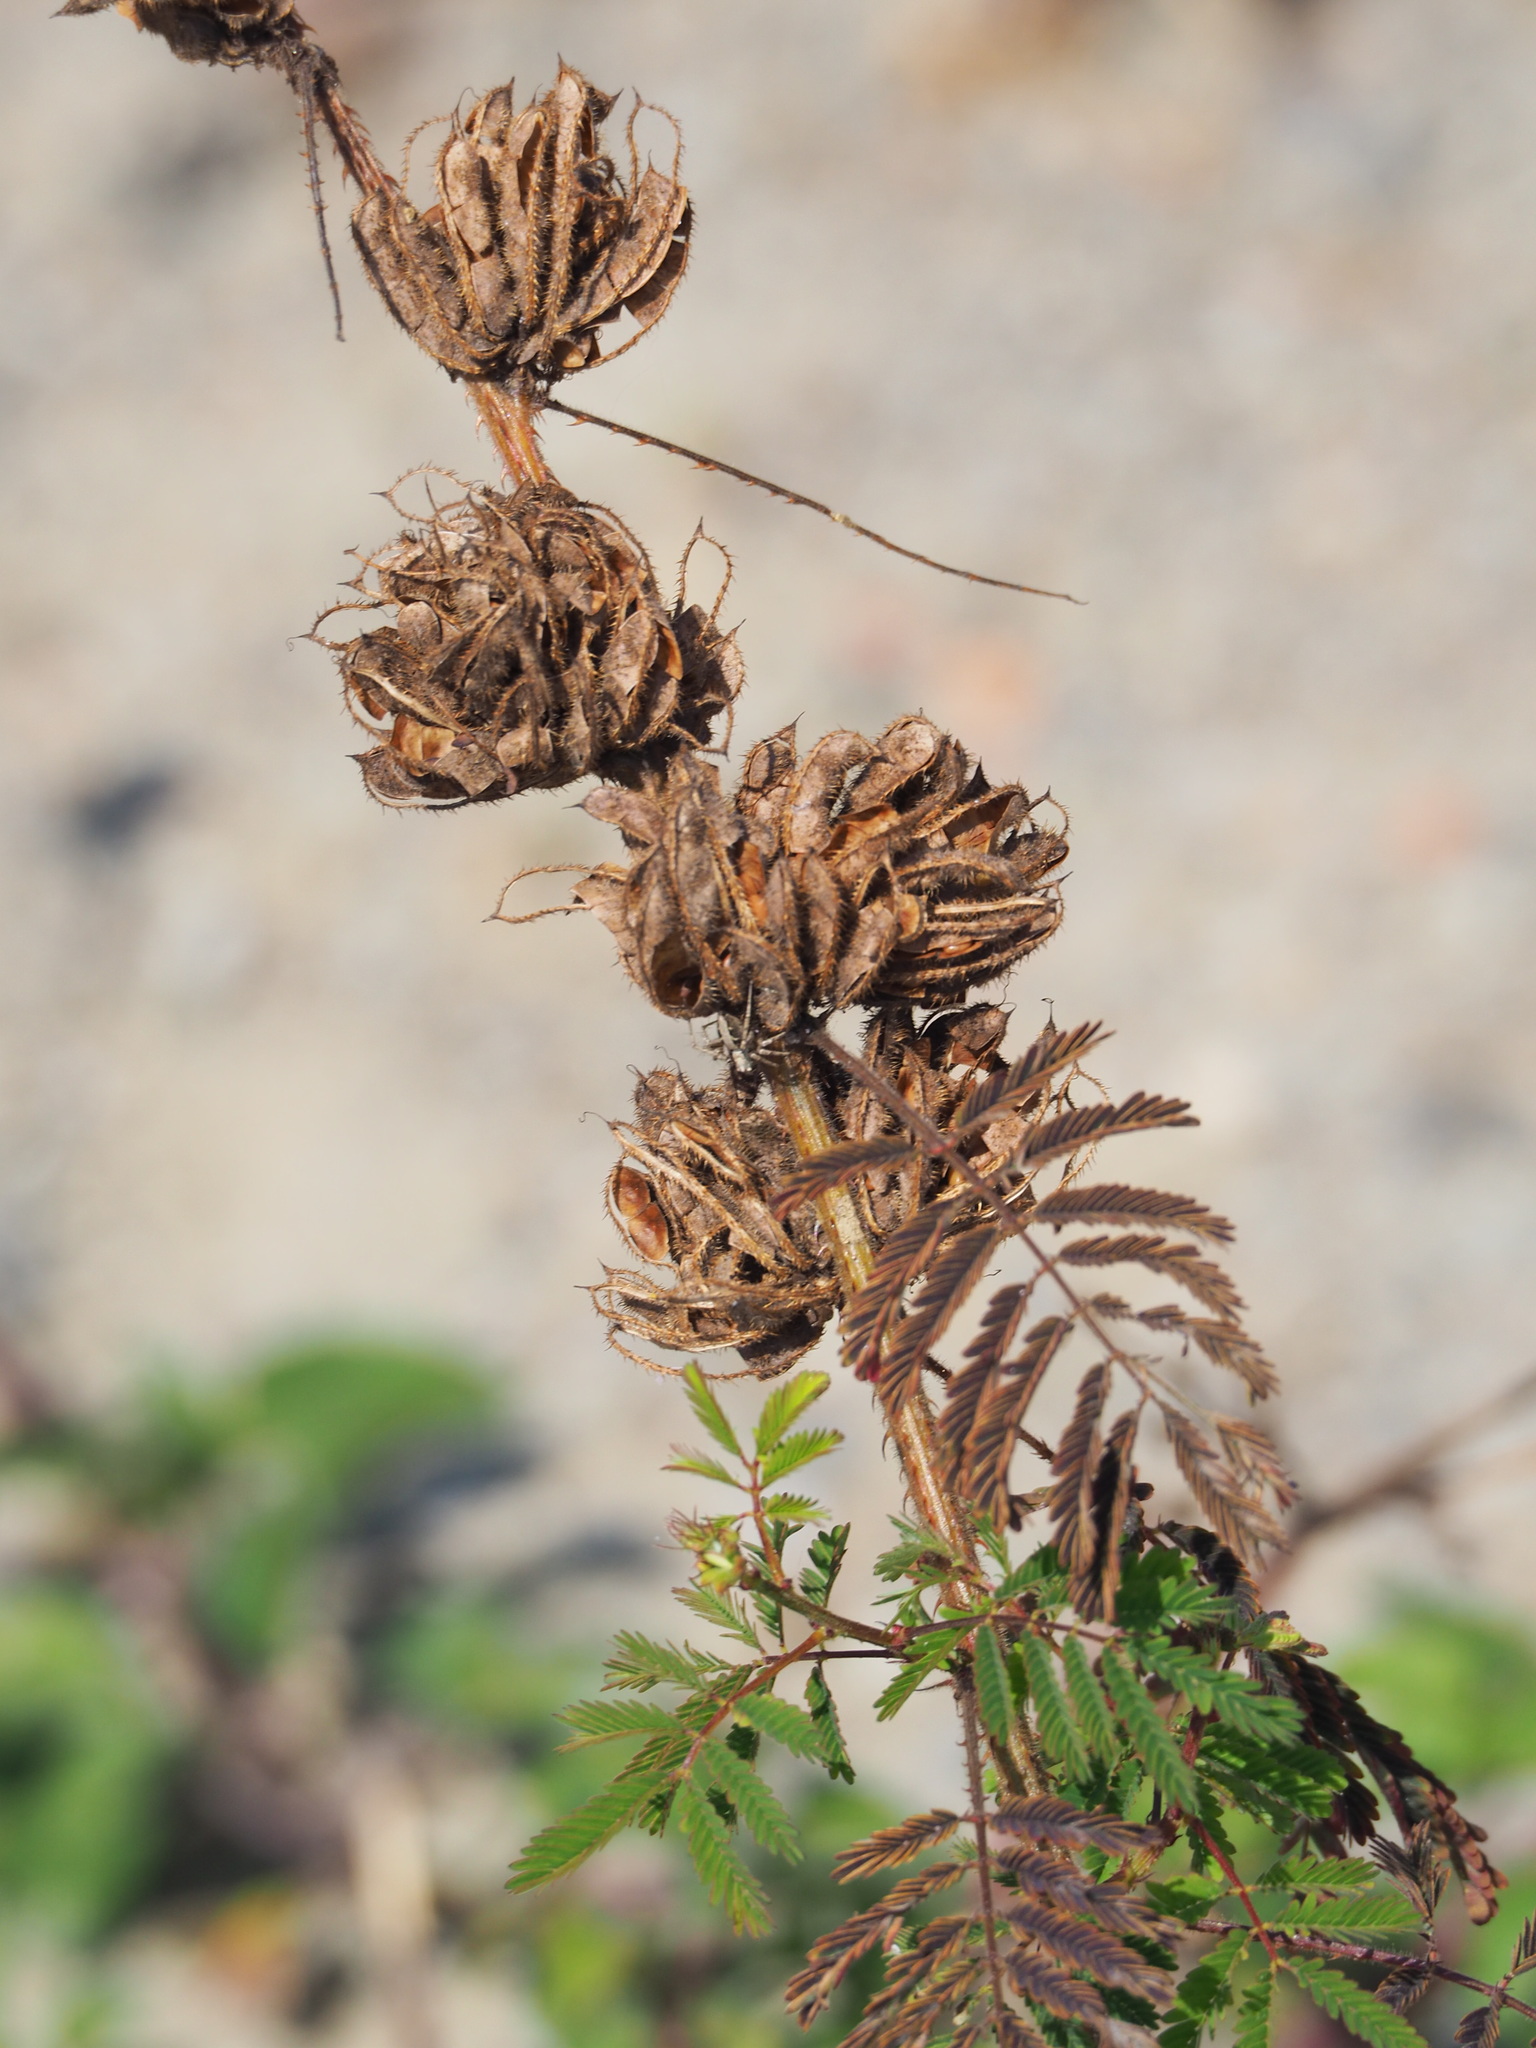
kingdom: Plantae
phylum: Tracheophyta
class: Magnoliopsida
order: Fabales
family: Fabaceae
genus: Mimosa
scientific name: Mimosa diplotricha
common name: Giant sensitive-plant
